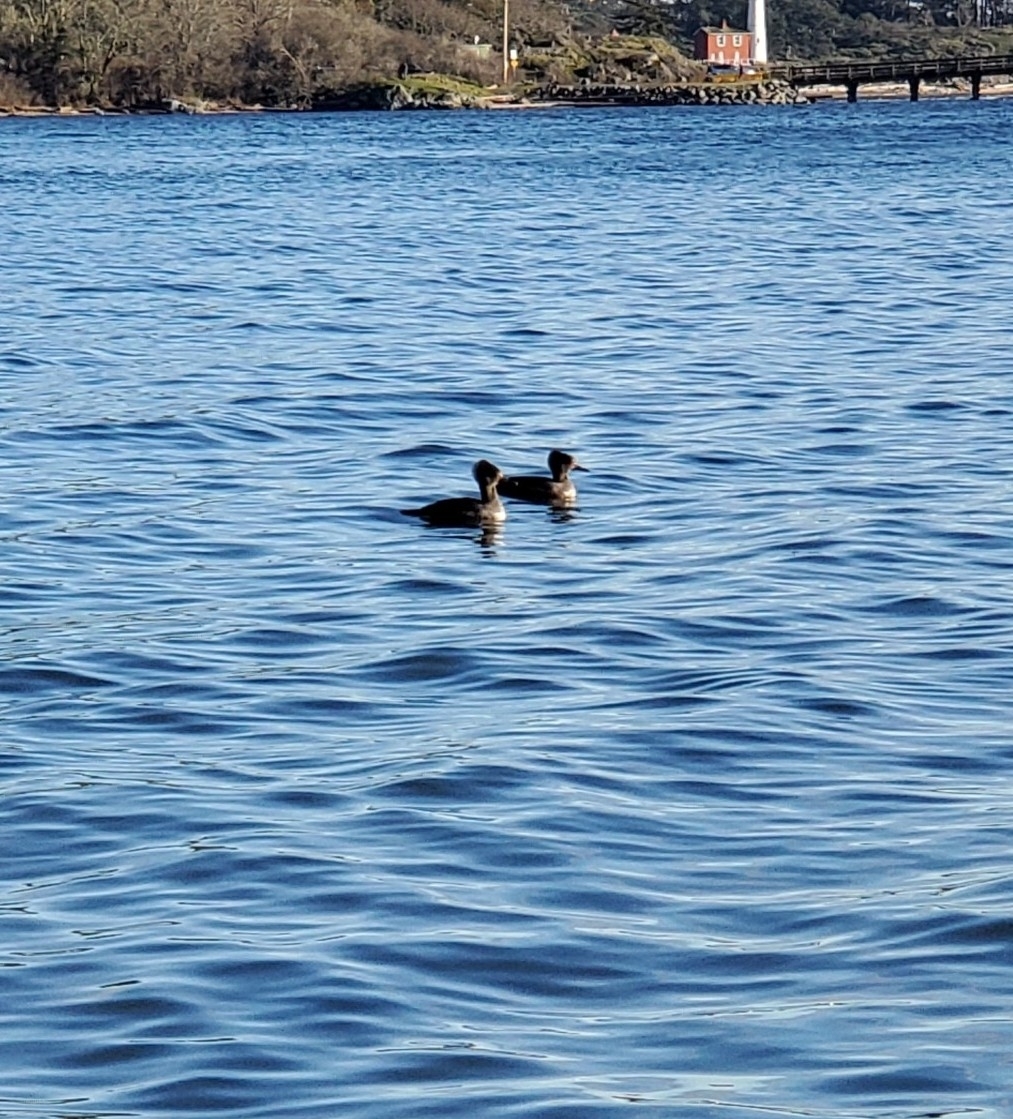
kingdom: Animalia
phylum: Chordata
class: Aves
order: Anseriformes
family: Anatidae
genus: Lophodytes
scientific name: Lophodytes cucullatus
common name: Hooded merganser
